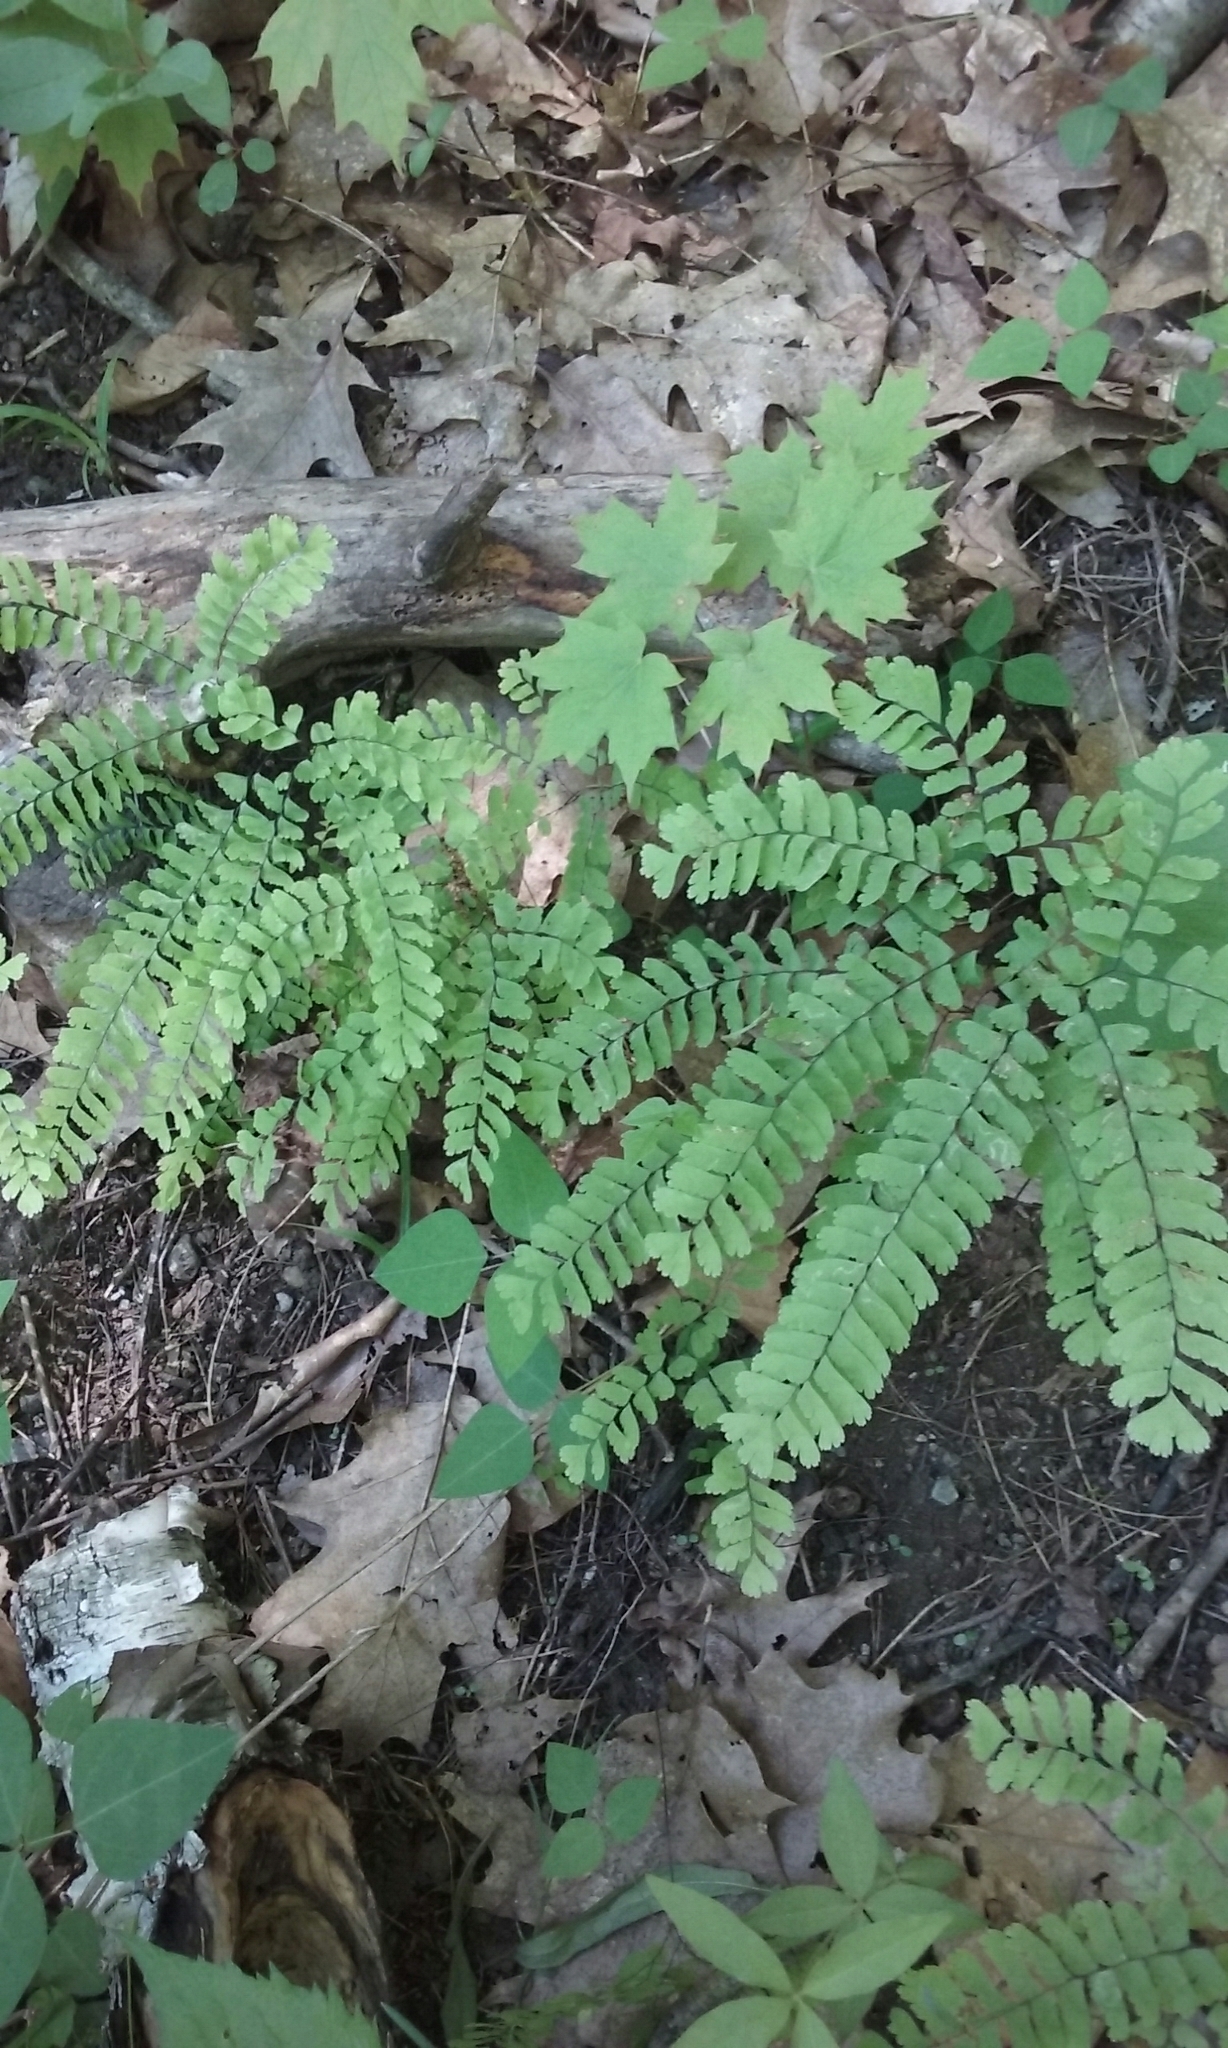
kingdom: Plantae
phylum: Tracheophyta
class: Polypodiopsida
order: Polypodiales
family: Pteridaceae
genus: Adiantum
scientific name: Adiantum pedatum
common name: Five-finger fern
